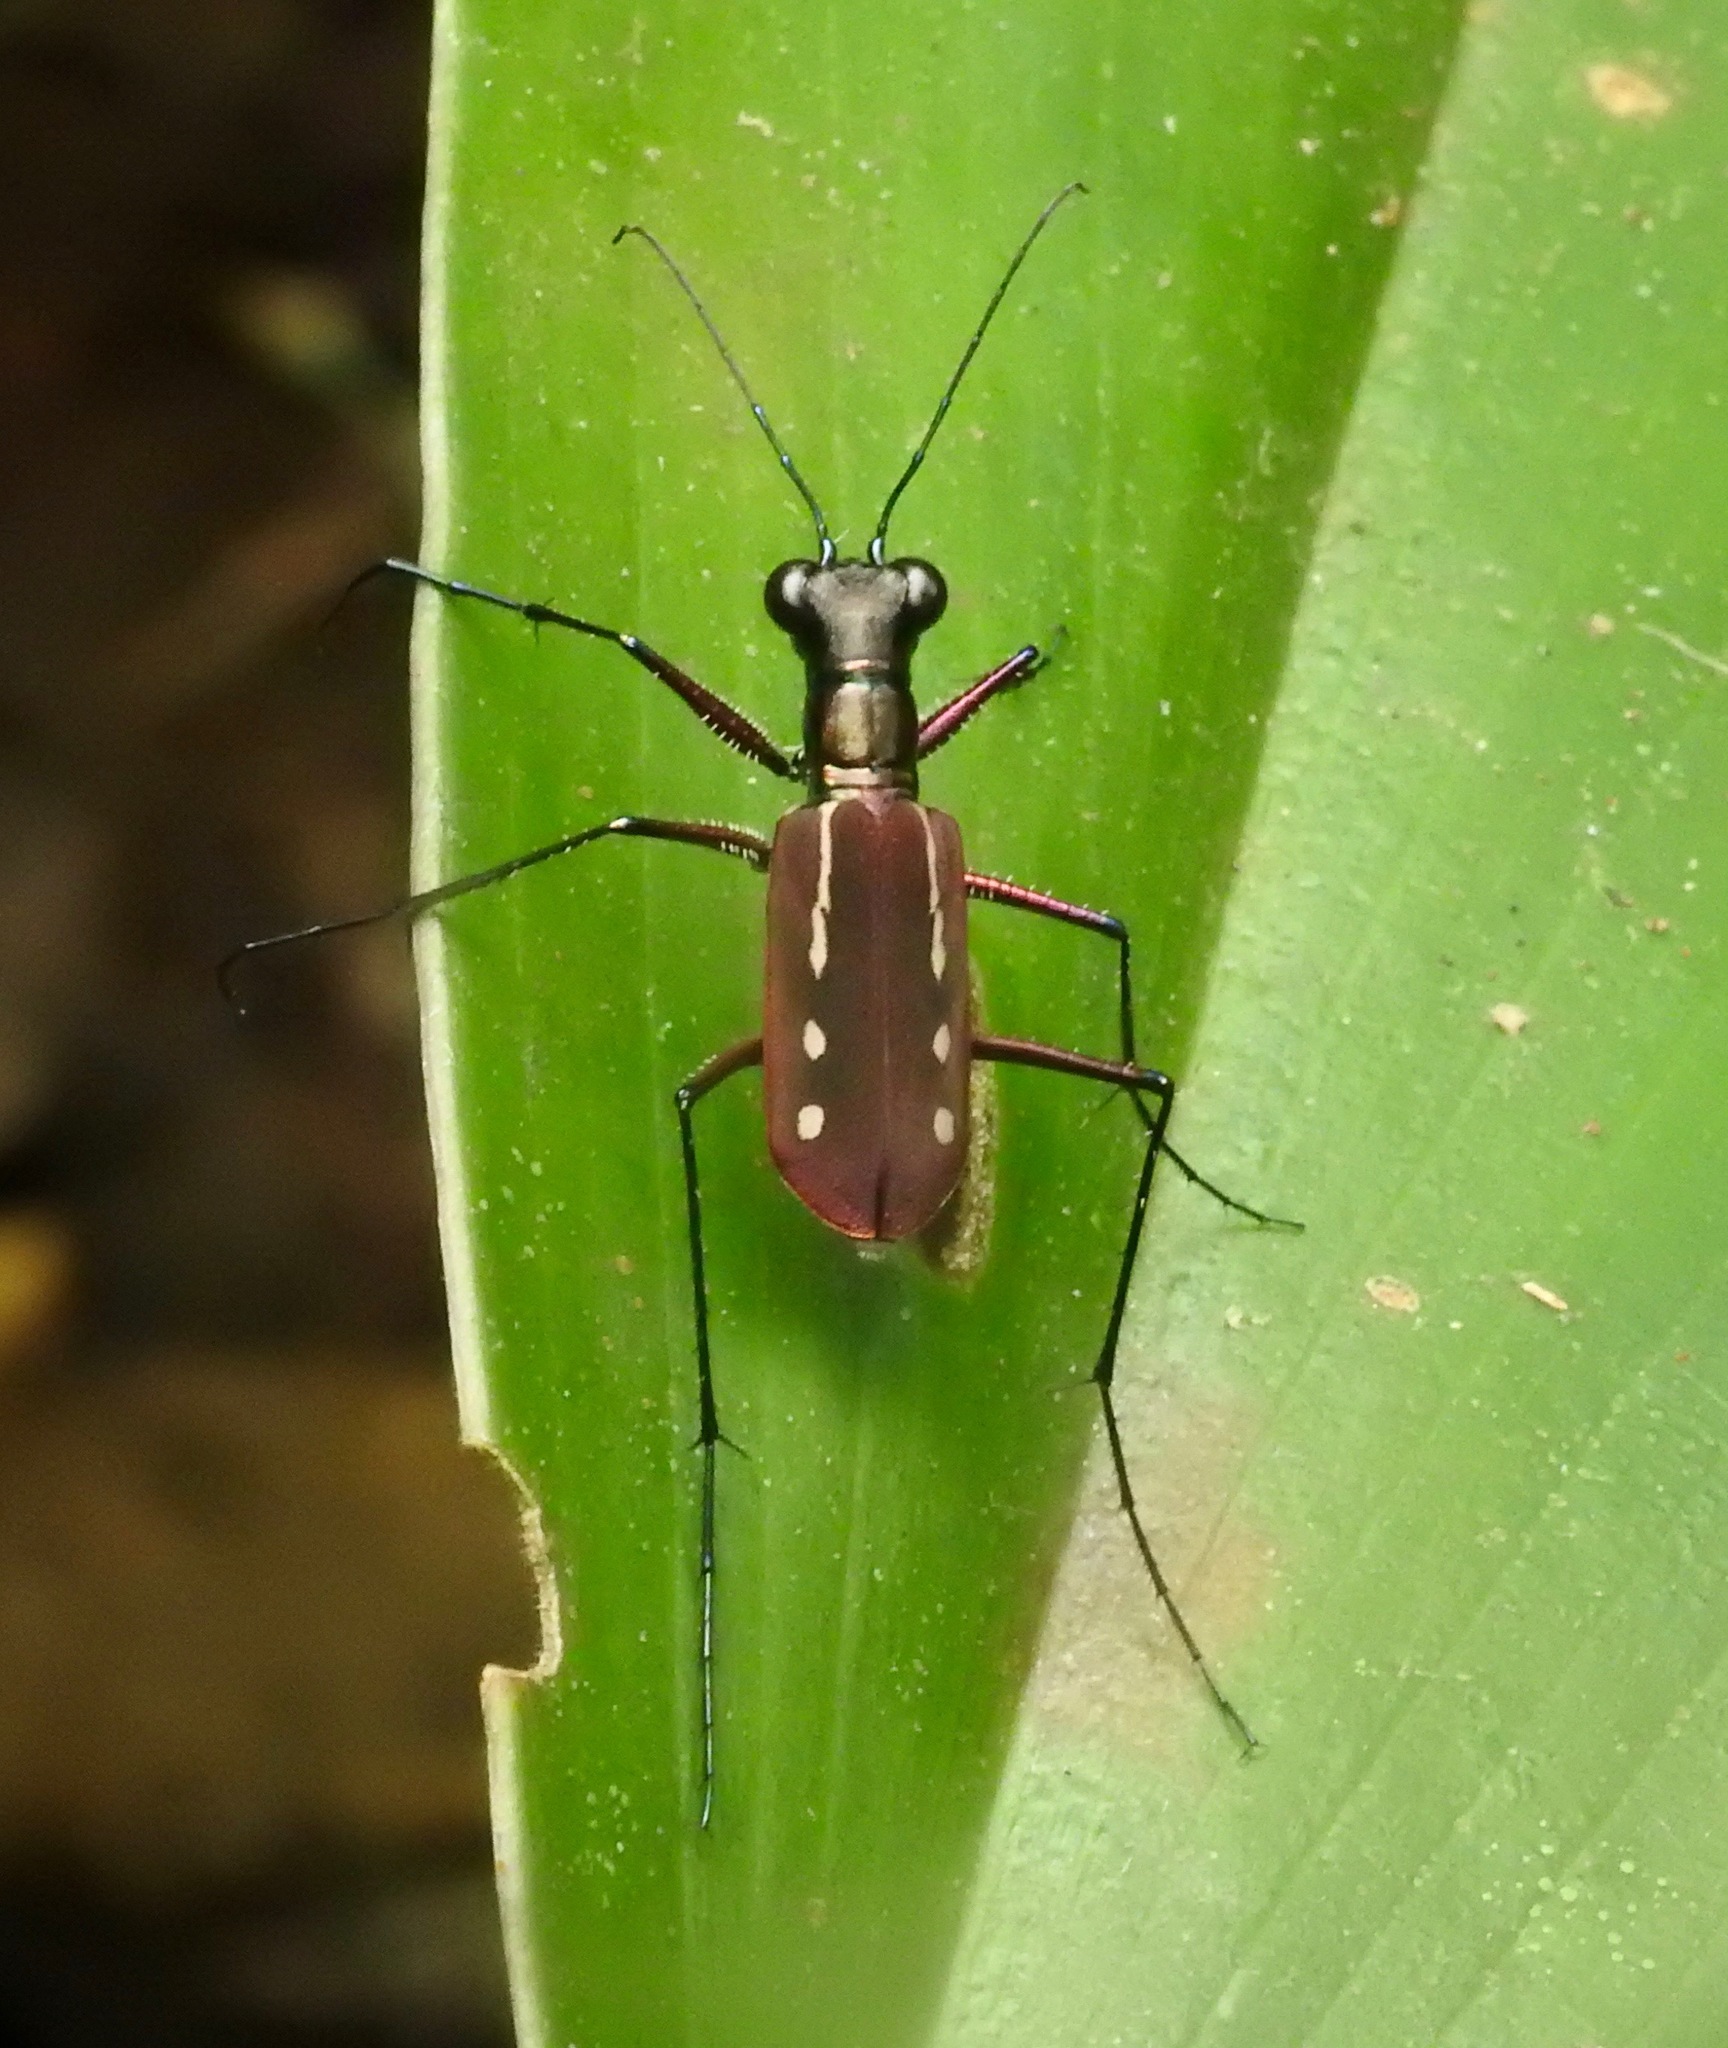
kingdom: Animalia
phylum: Arthropoda
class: Insecta
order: Coleoptera
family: Carabidae
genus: Cicindela
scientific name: Cicindela lacrymans
